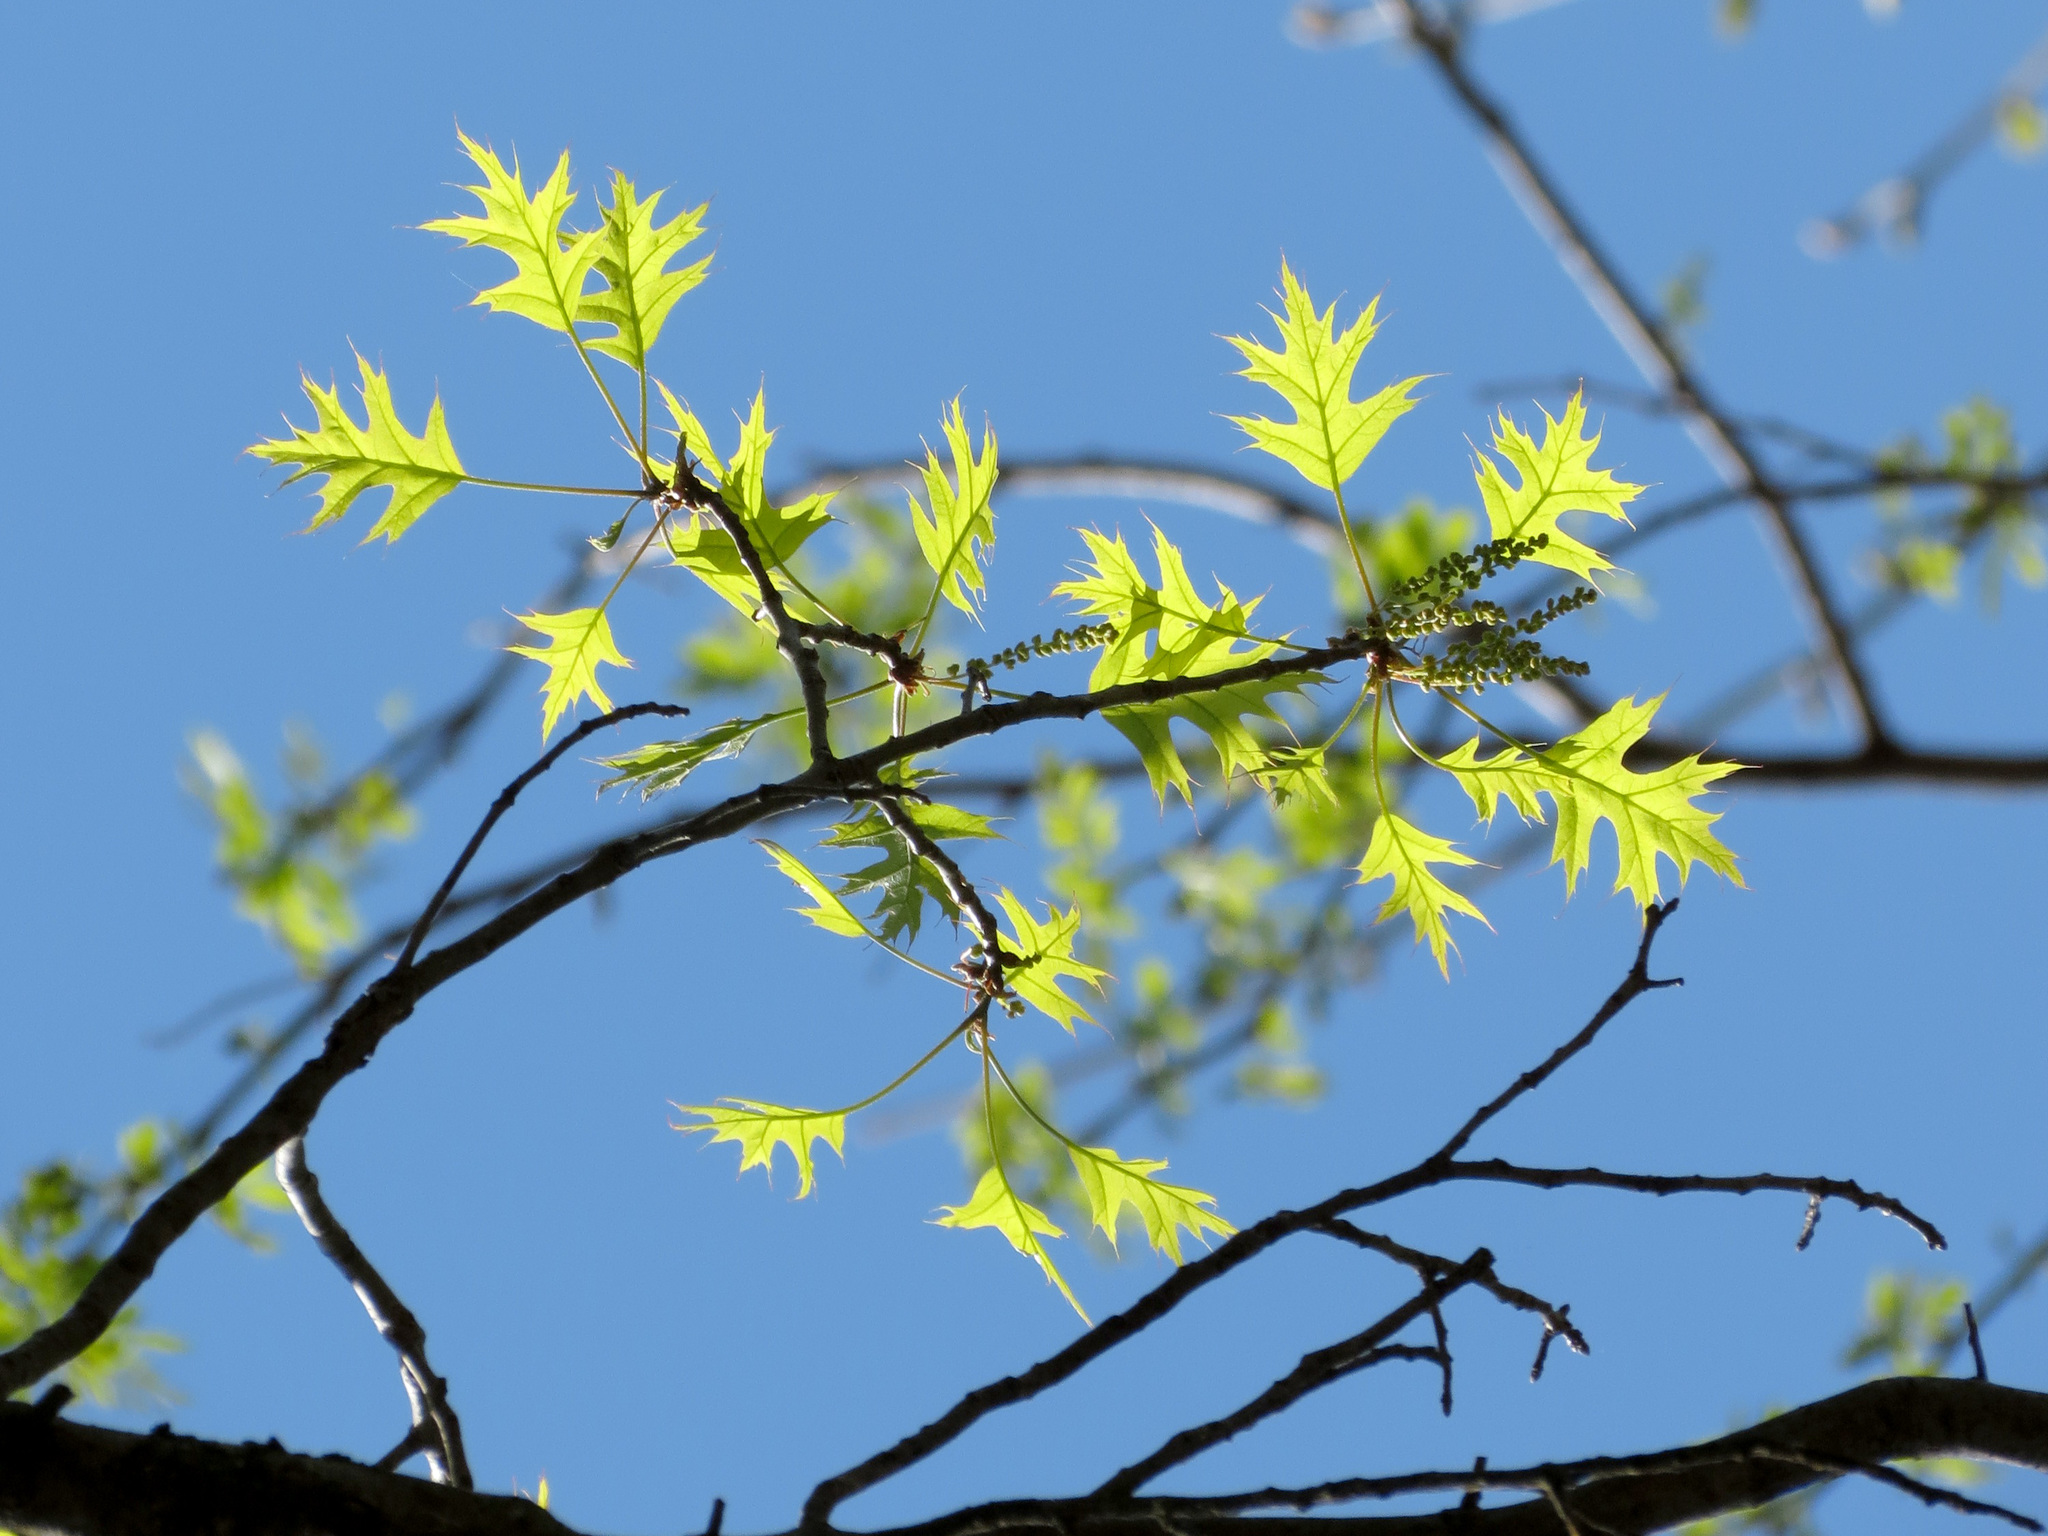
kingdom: Plantae
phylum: Tracheophyta
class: Magnoliopsida
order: Fagales
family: Fagaceae
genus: Quercus
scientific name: Quercus palustris
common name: Pin oak
